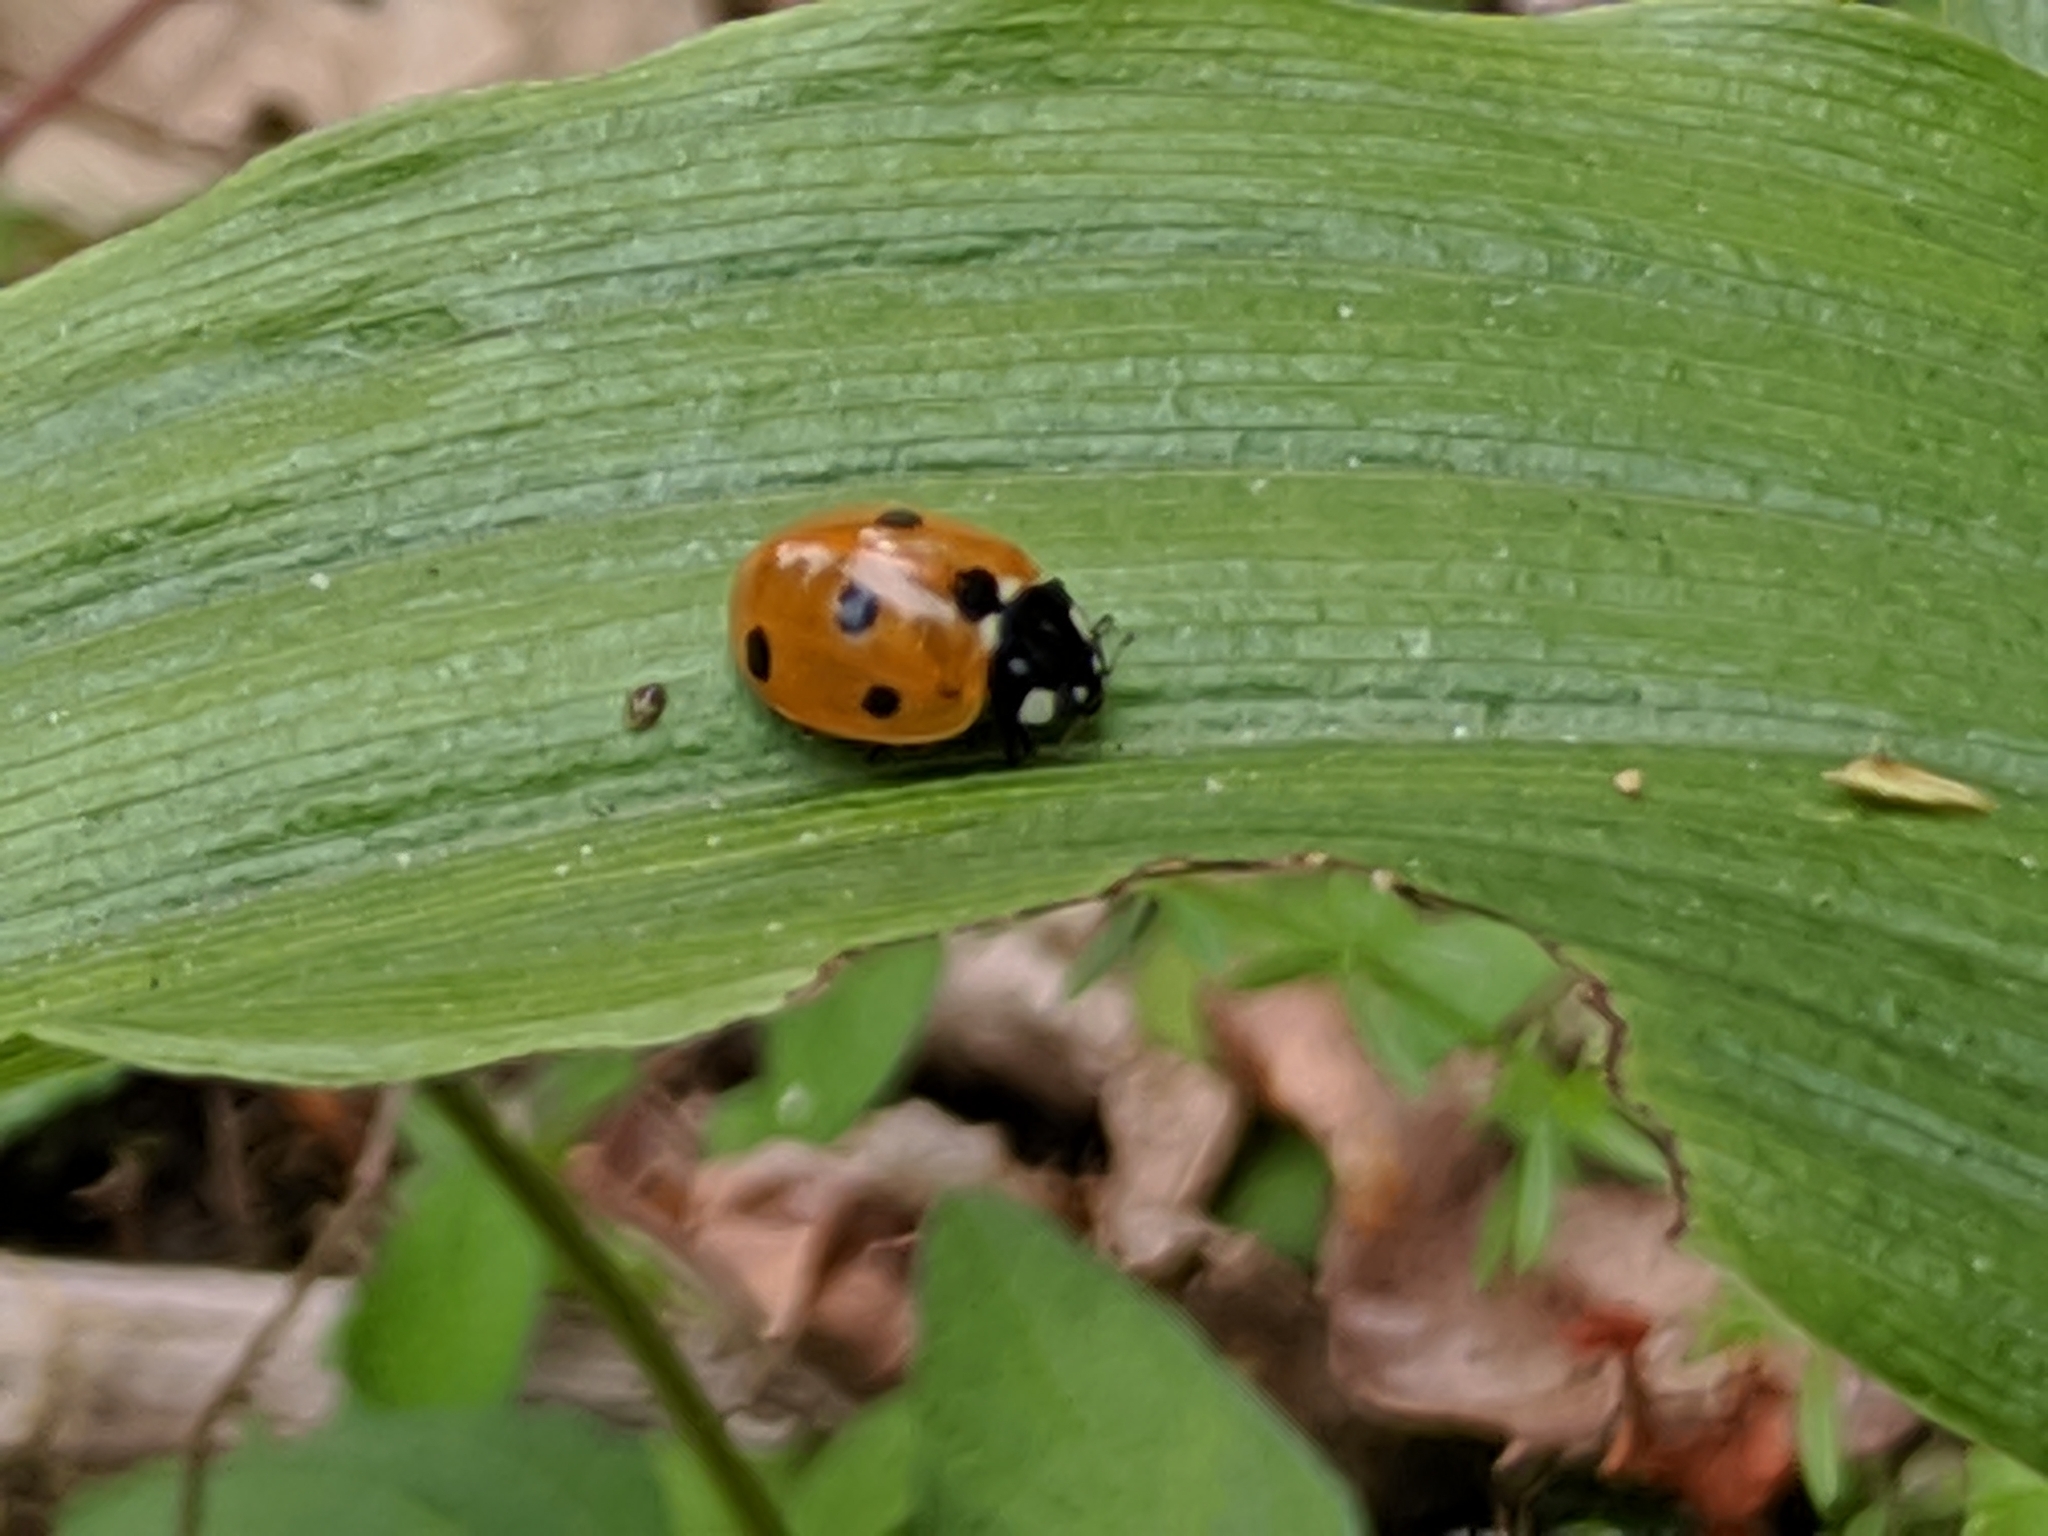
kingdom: Animalia
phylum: Arthropoda
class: Insecta
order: Coleoptera
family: Coccinellidae
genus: Coccinella
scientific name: Coccinella septempunctata
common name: Sevenspotted lady beetle
